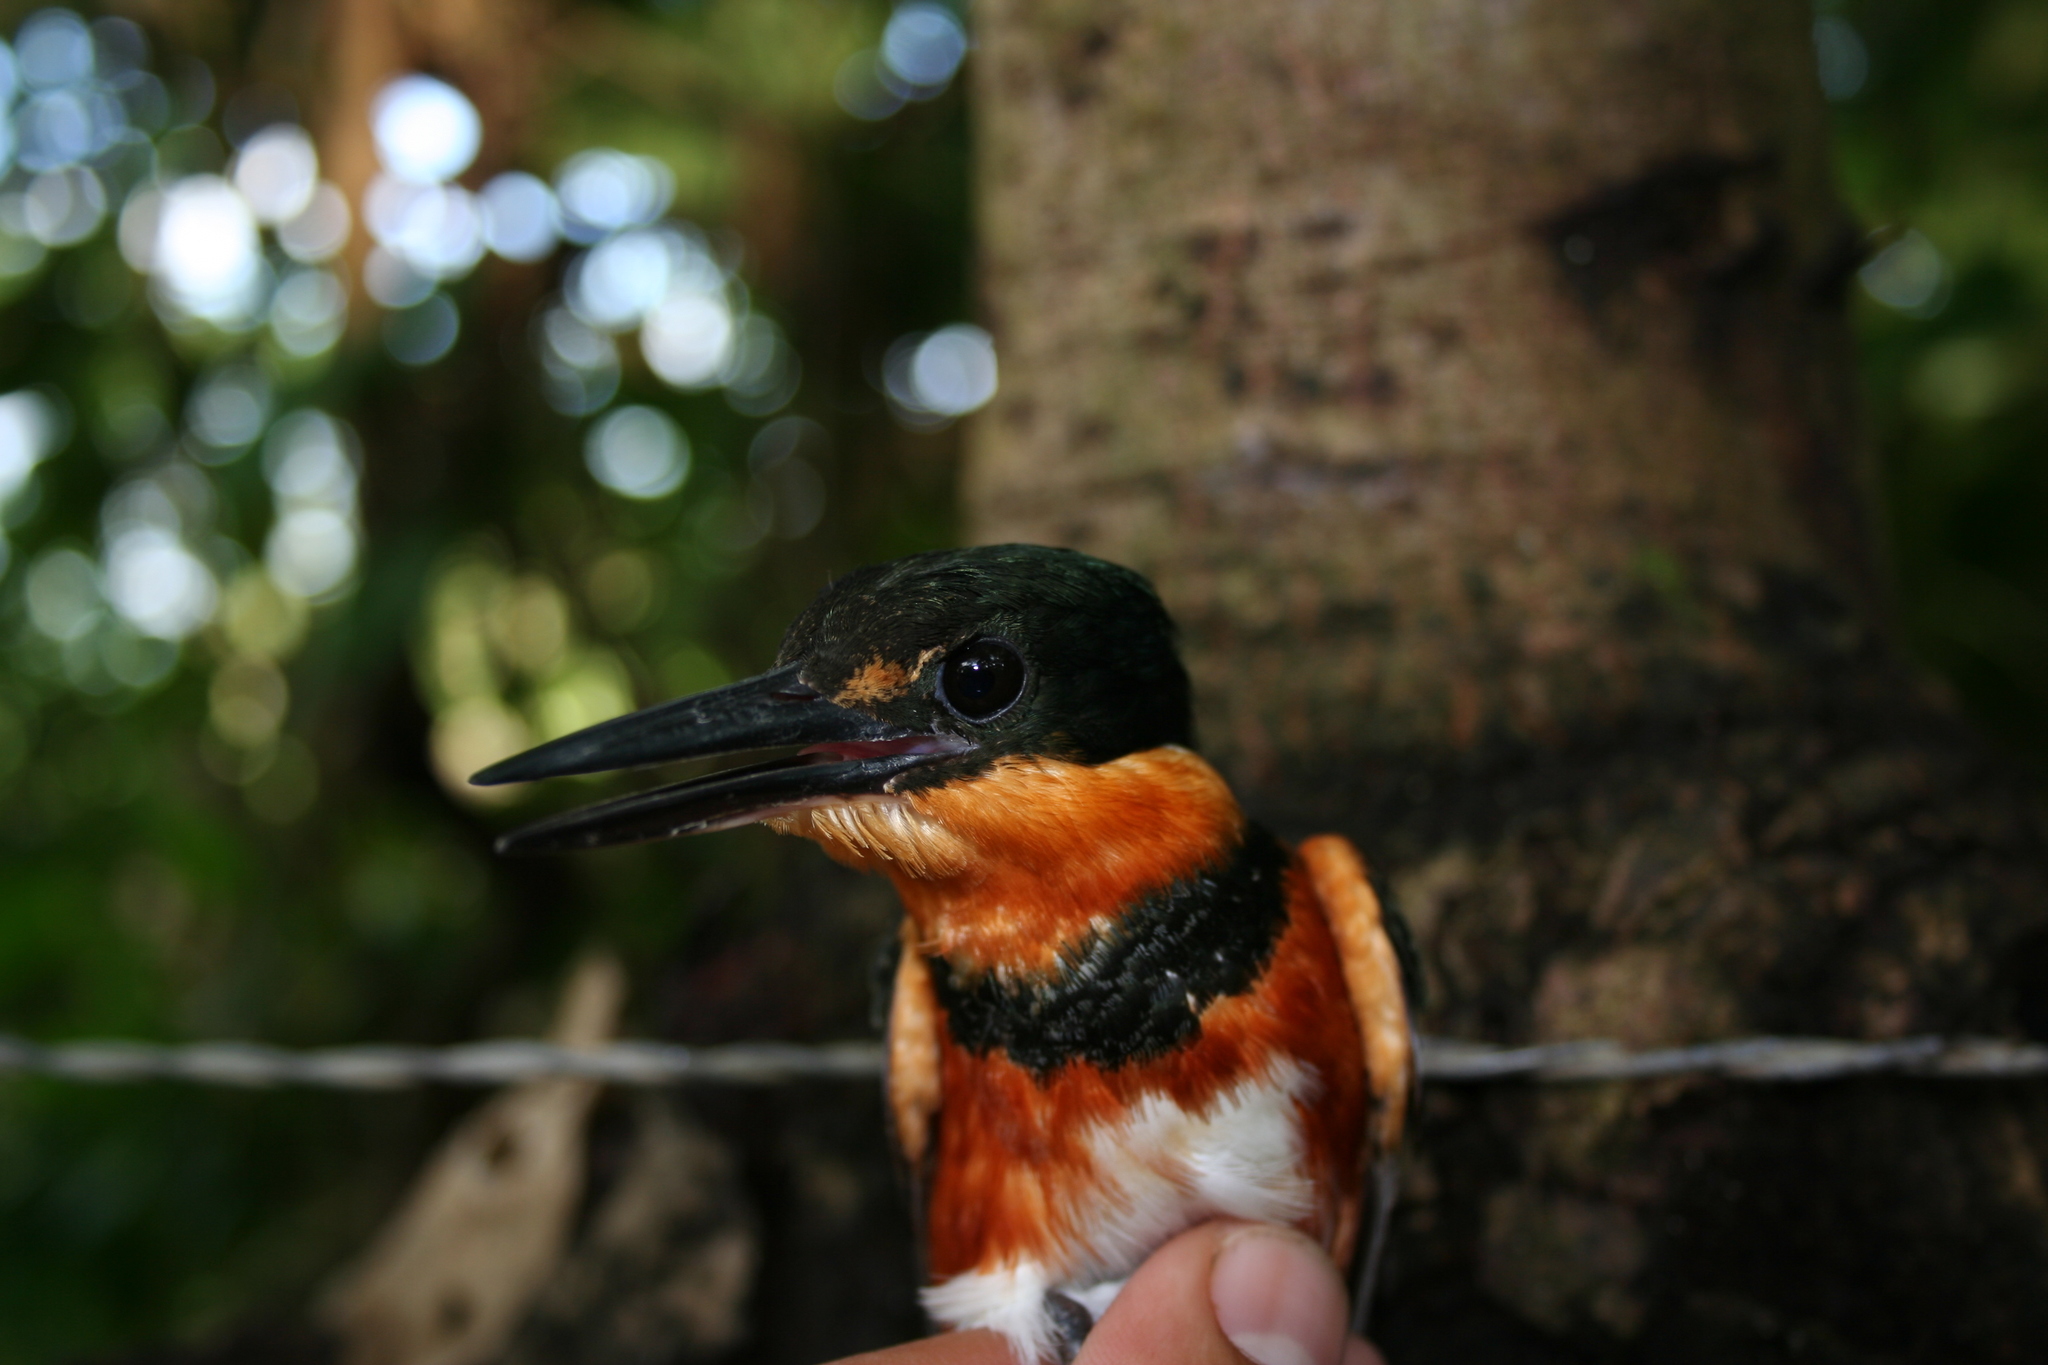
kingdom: Animalia
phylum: Chordata
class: Aves
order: Coraciiformes
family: Alcedinidae
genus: Chloroceryle
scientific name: Chloroceryle aenea
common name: American pygmy kingfisher
